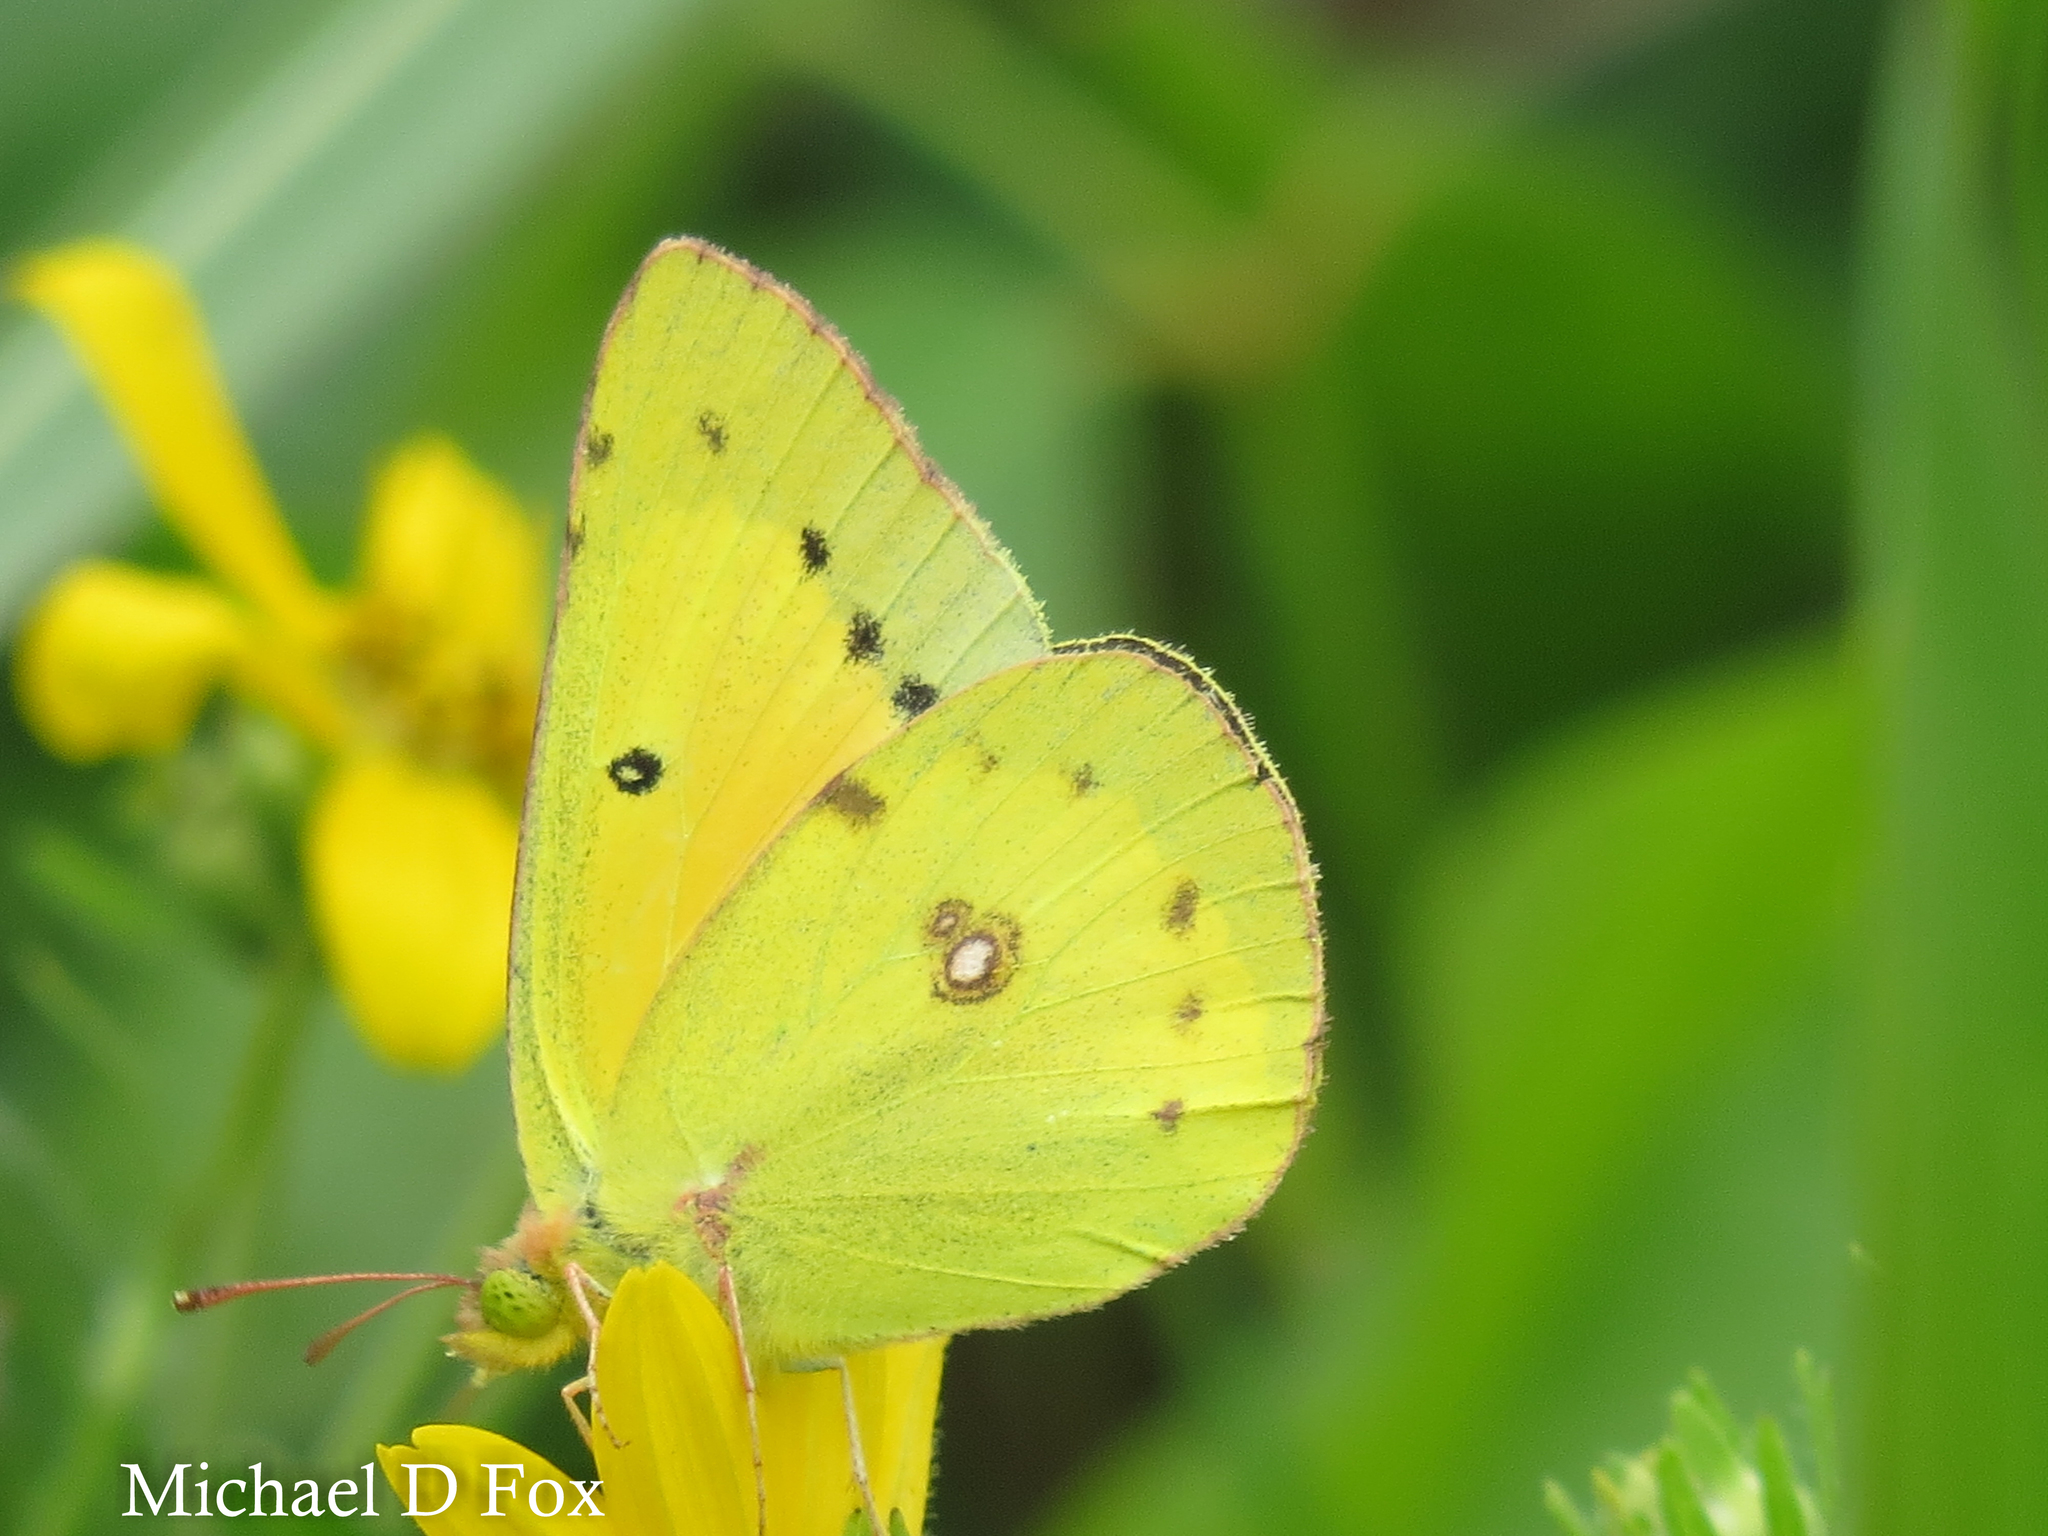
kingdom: Animalia
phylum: Arthropoda
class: Insecta
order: Lepidoptera
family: Pieridae
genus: Colias
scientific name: Colias eurytheme
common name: Alfalfa butterfly
